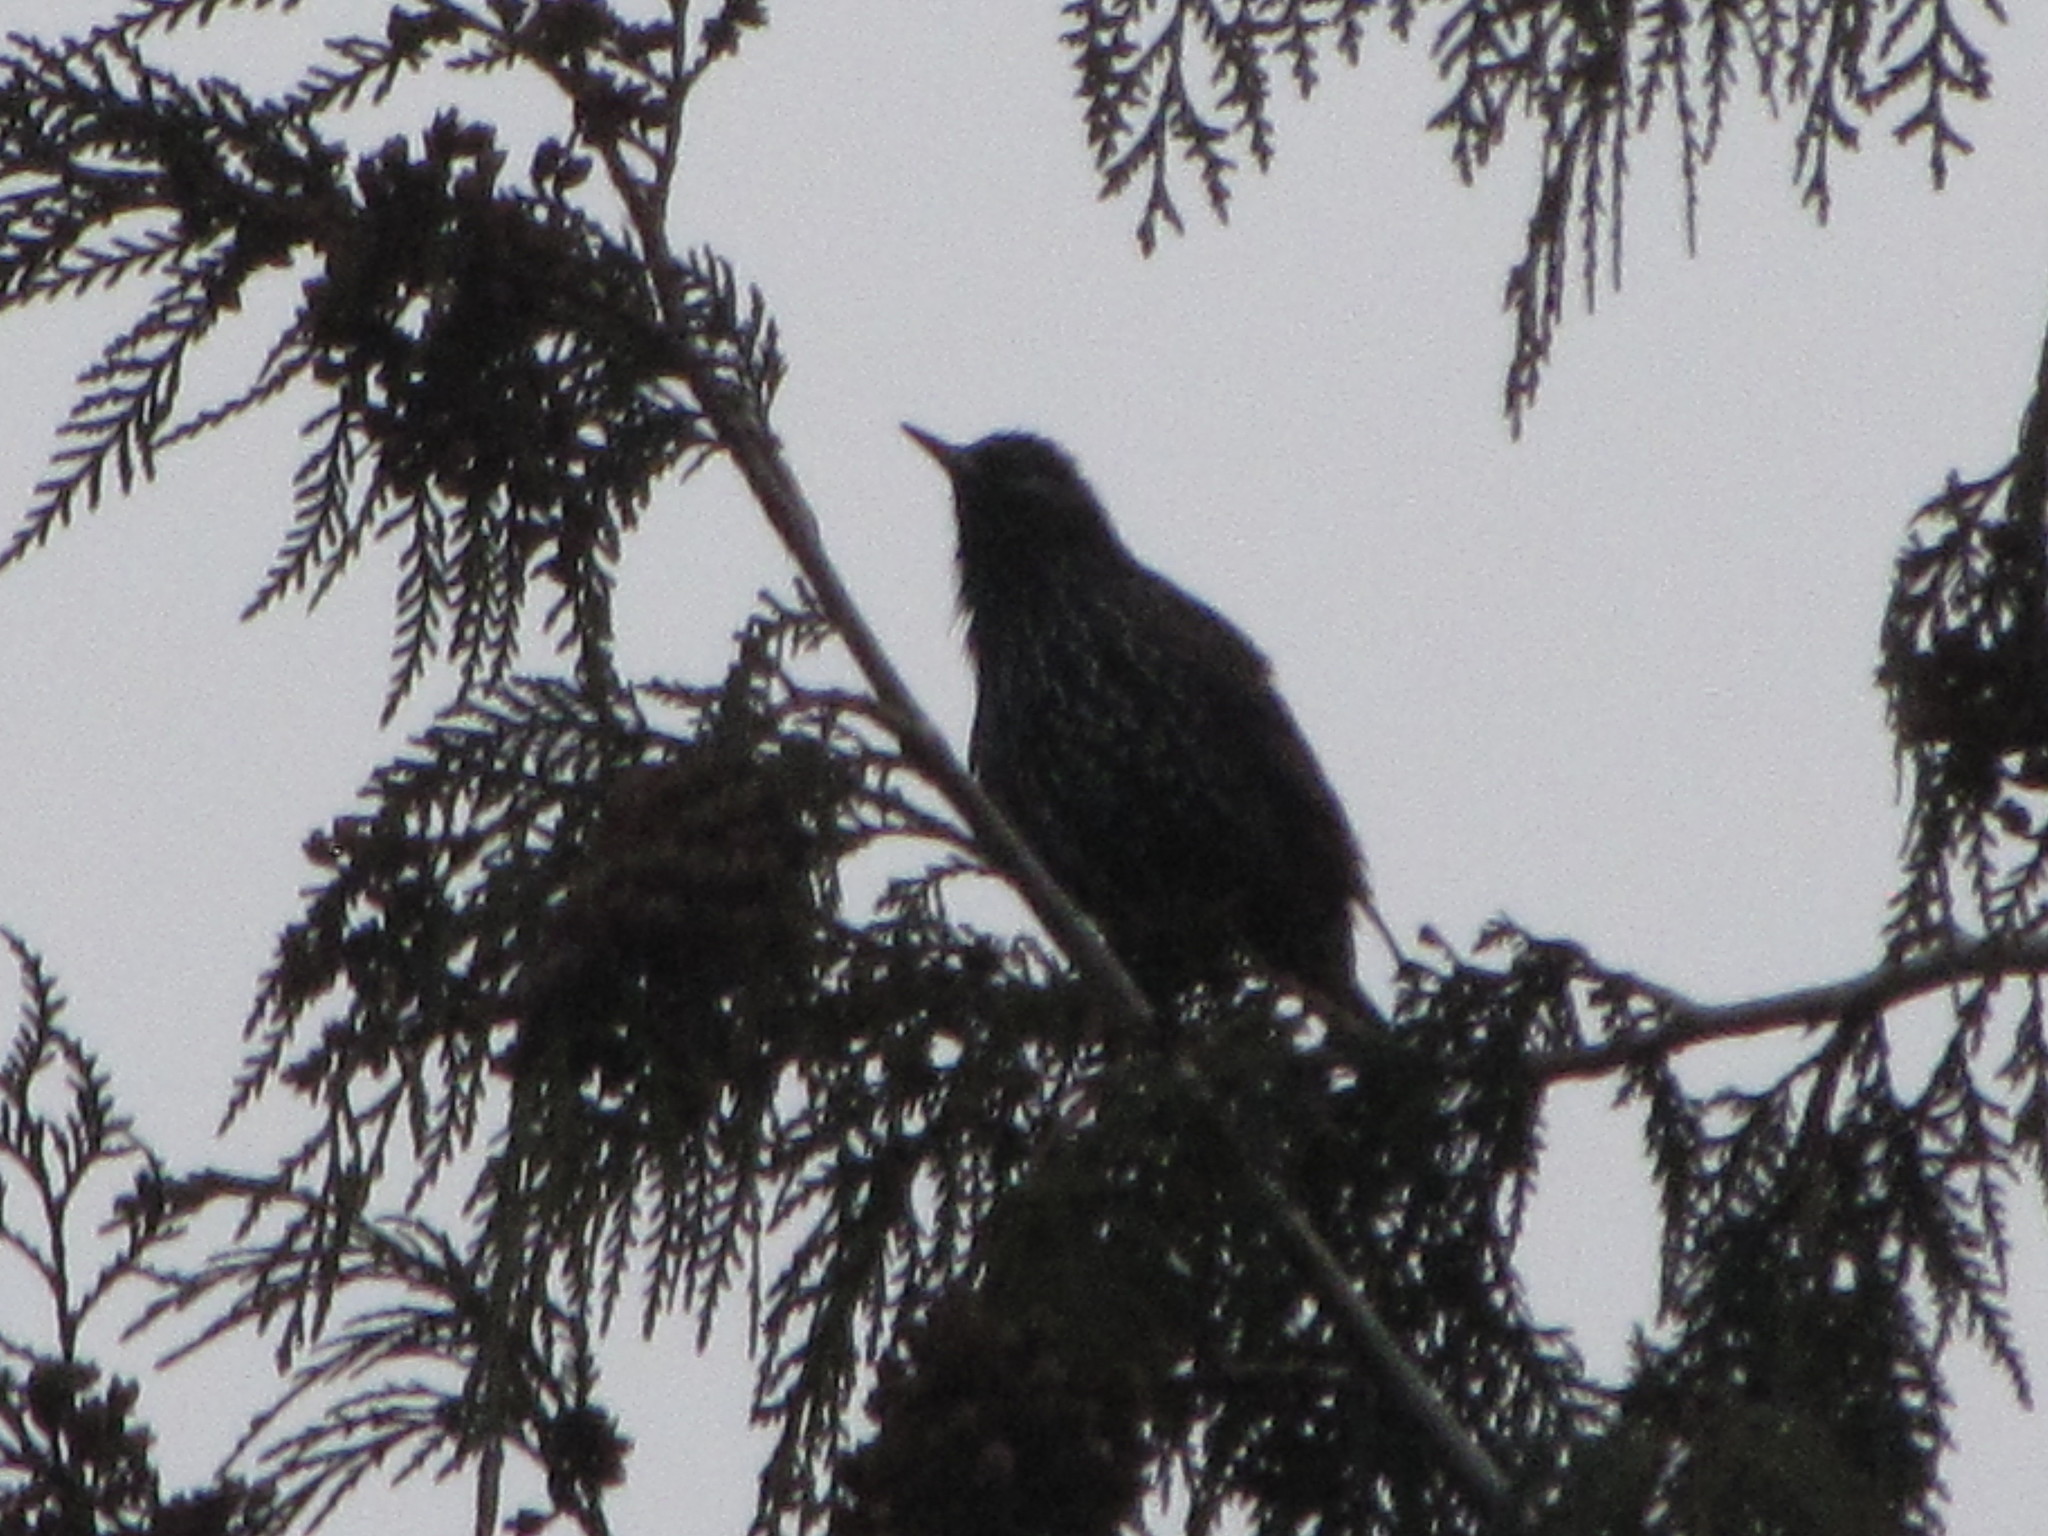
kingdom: Animalia
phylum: Chordata
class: Aves
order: Passeriformes
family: Sturnidae
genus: Sturnus
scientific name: Sturnus vulgaris
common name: Common starling
